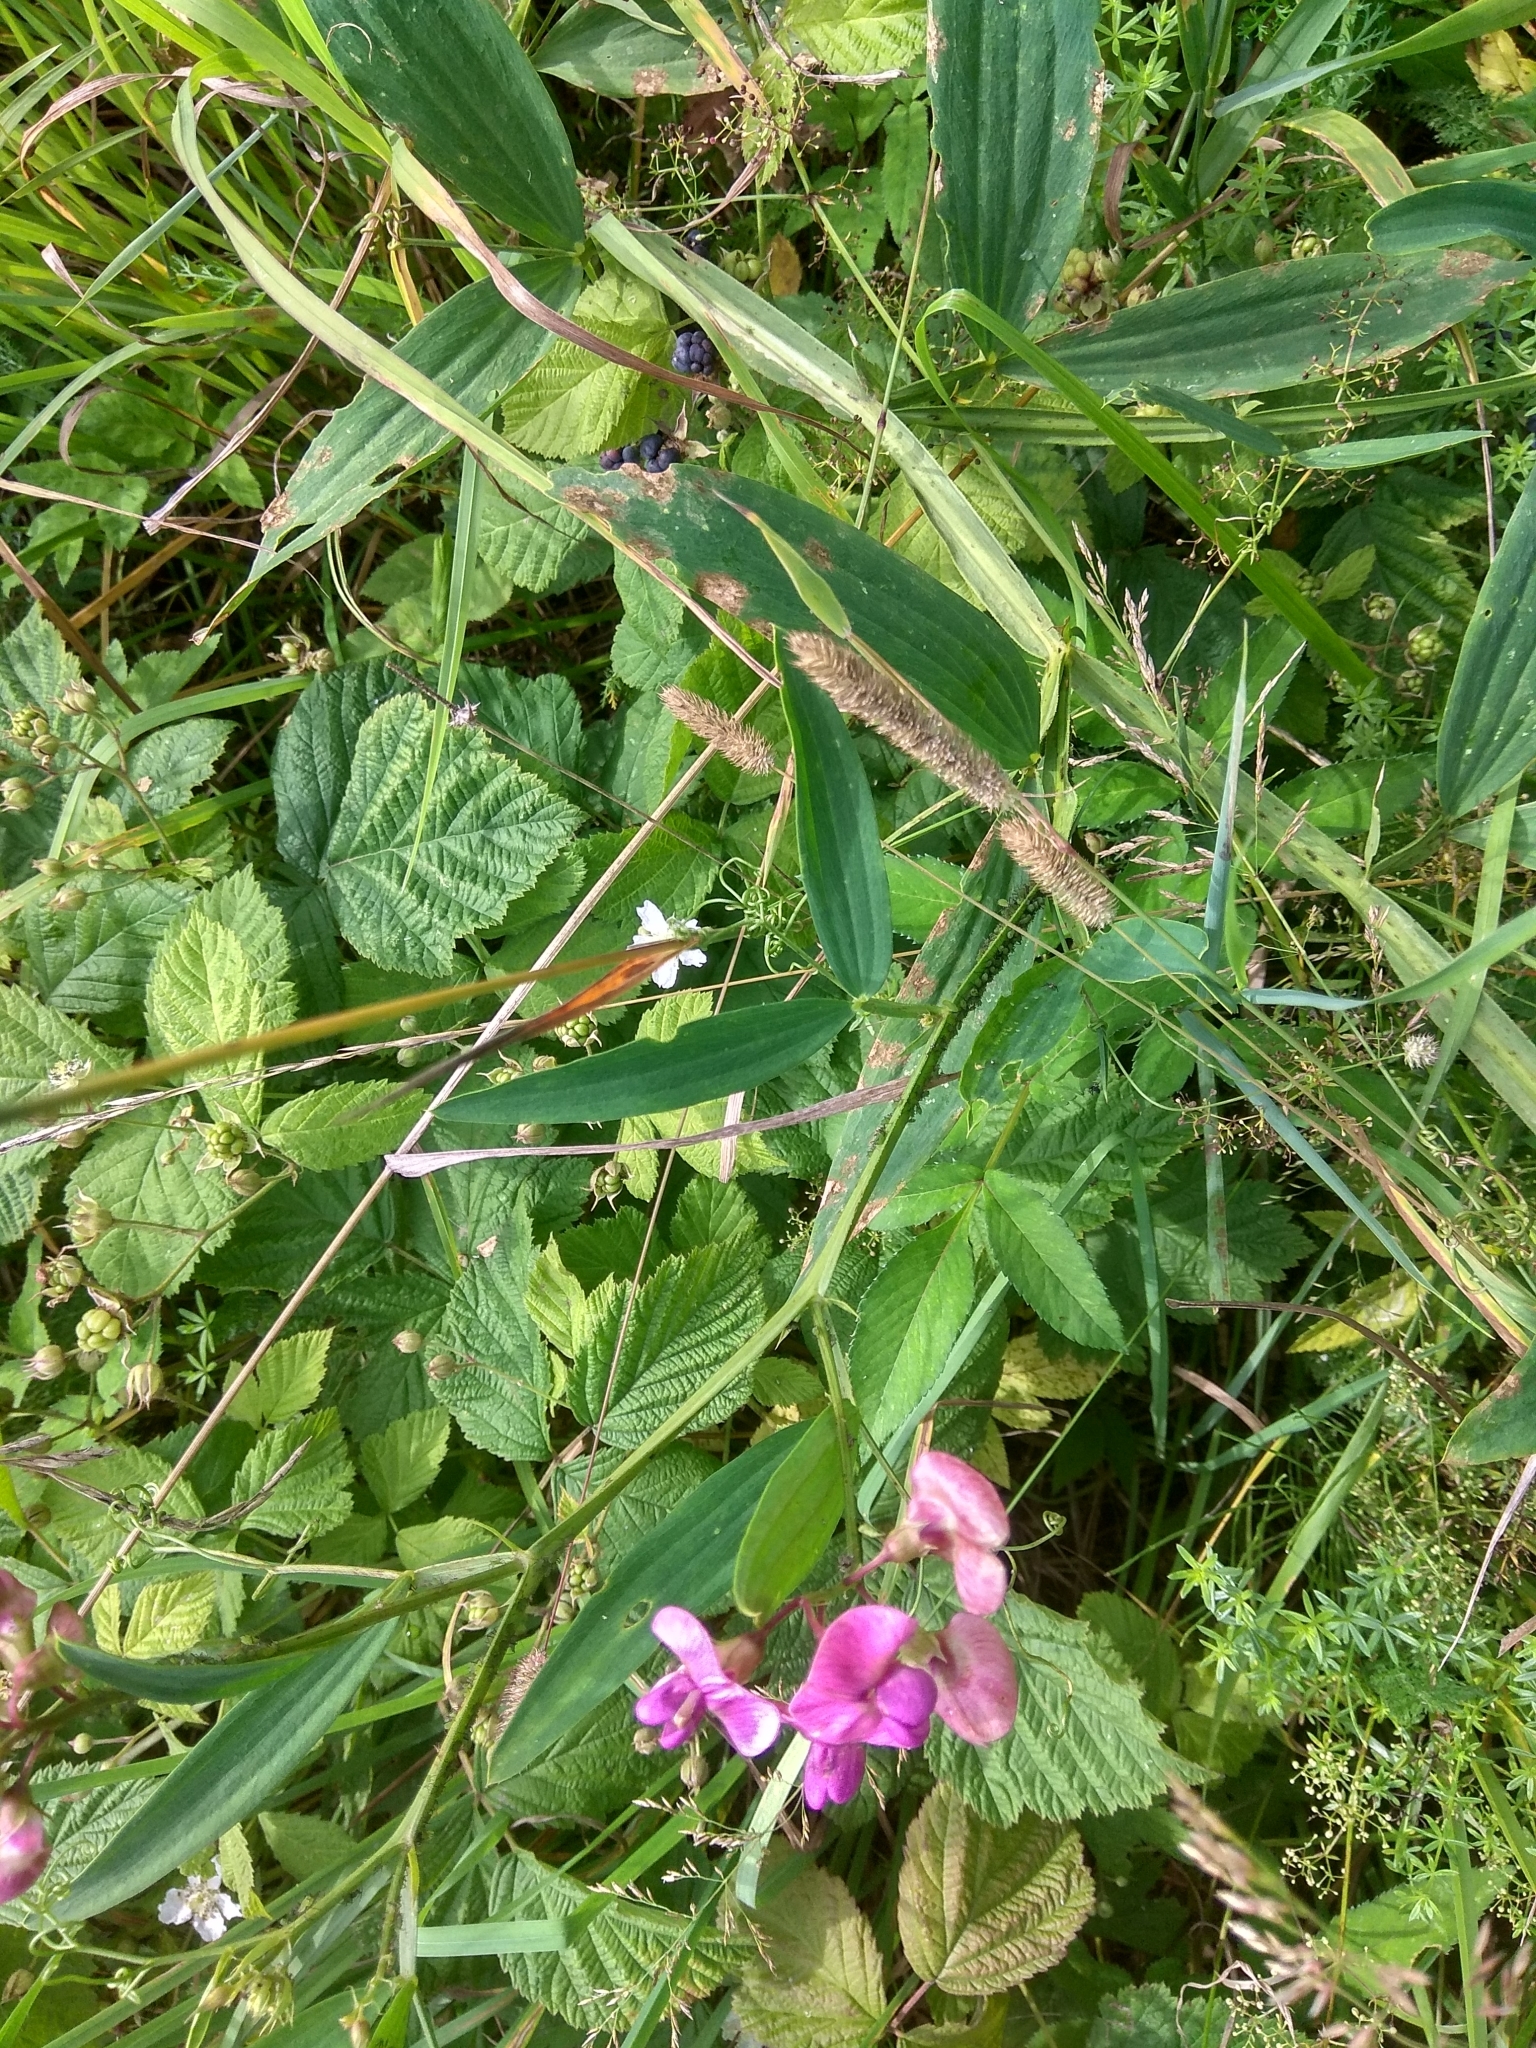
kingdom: Plantae
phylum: Tracheophyta
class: Magnoliopsida
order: Fabales
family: Fabaceae
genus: Lathyrus
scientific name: Lathyrus sylvestris
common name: Flat pea
